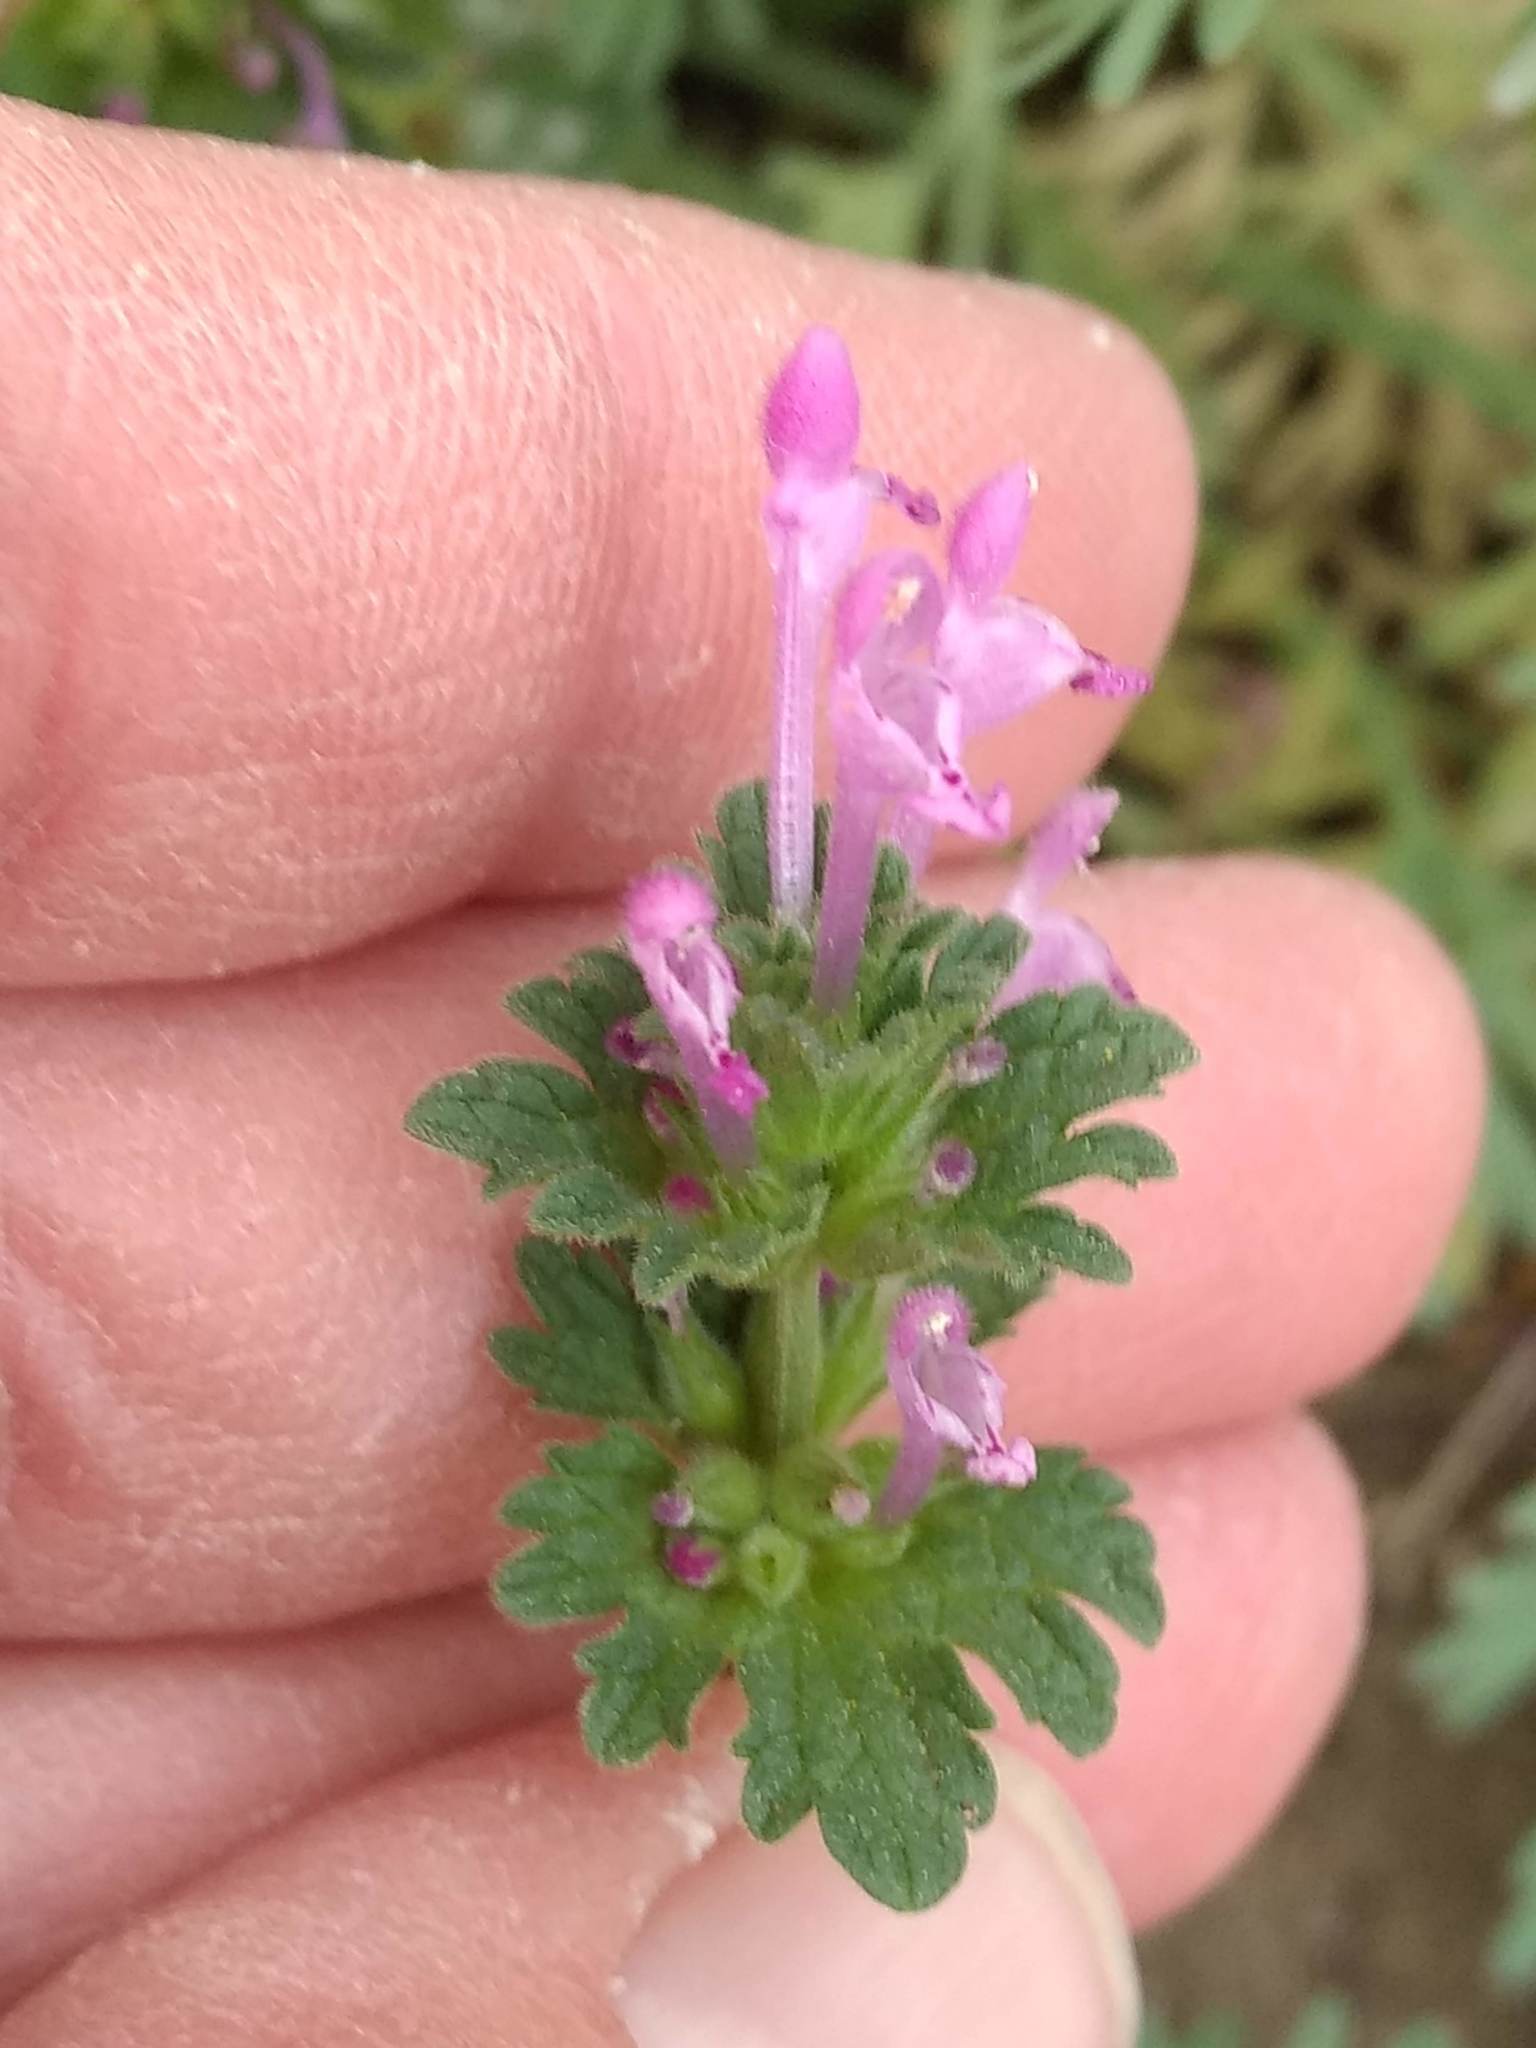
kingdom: Plantae
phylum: Tracheophyta
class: Magnoliopsida
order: Lamiales
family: Lamiaceae
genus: Lamium
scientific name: Lamium amplexicaule
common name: Henbit dead-nettle
